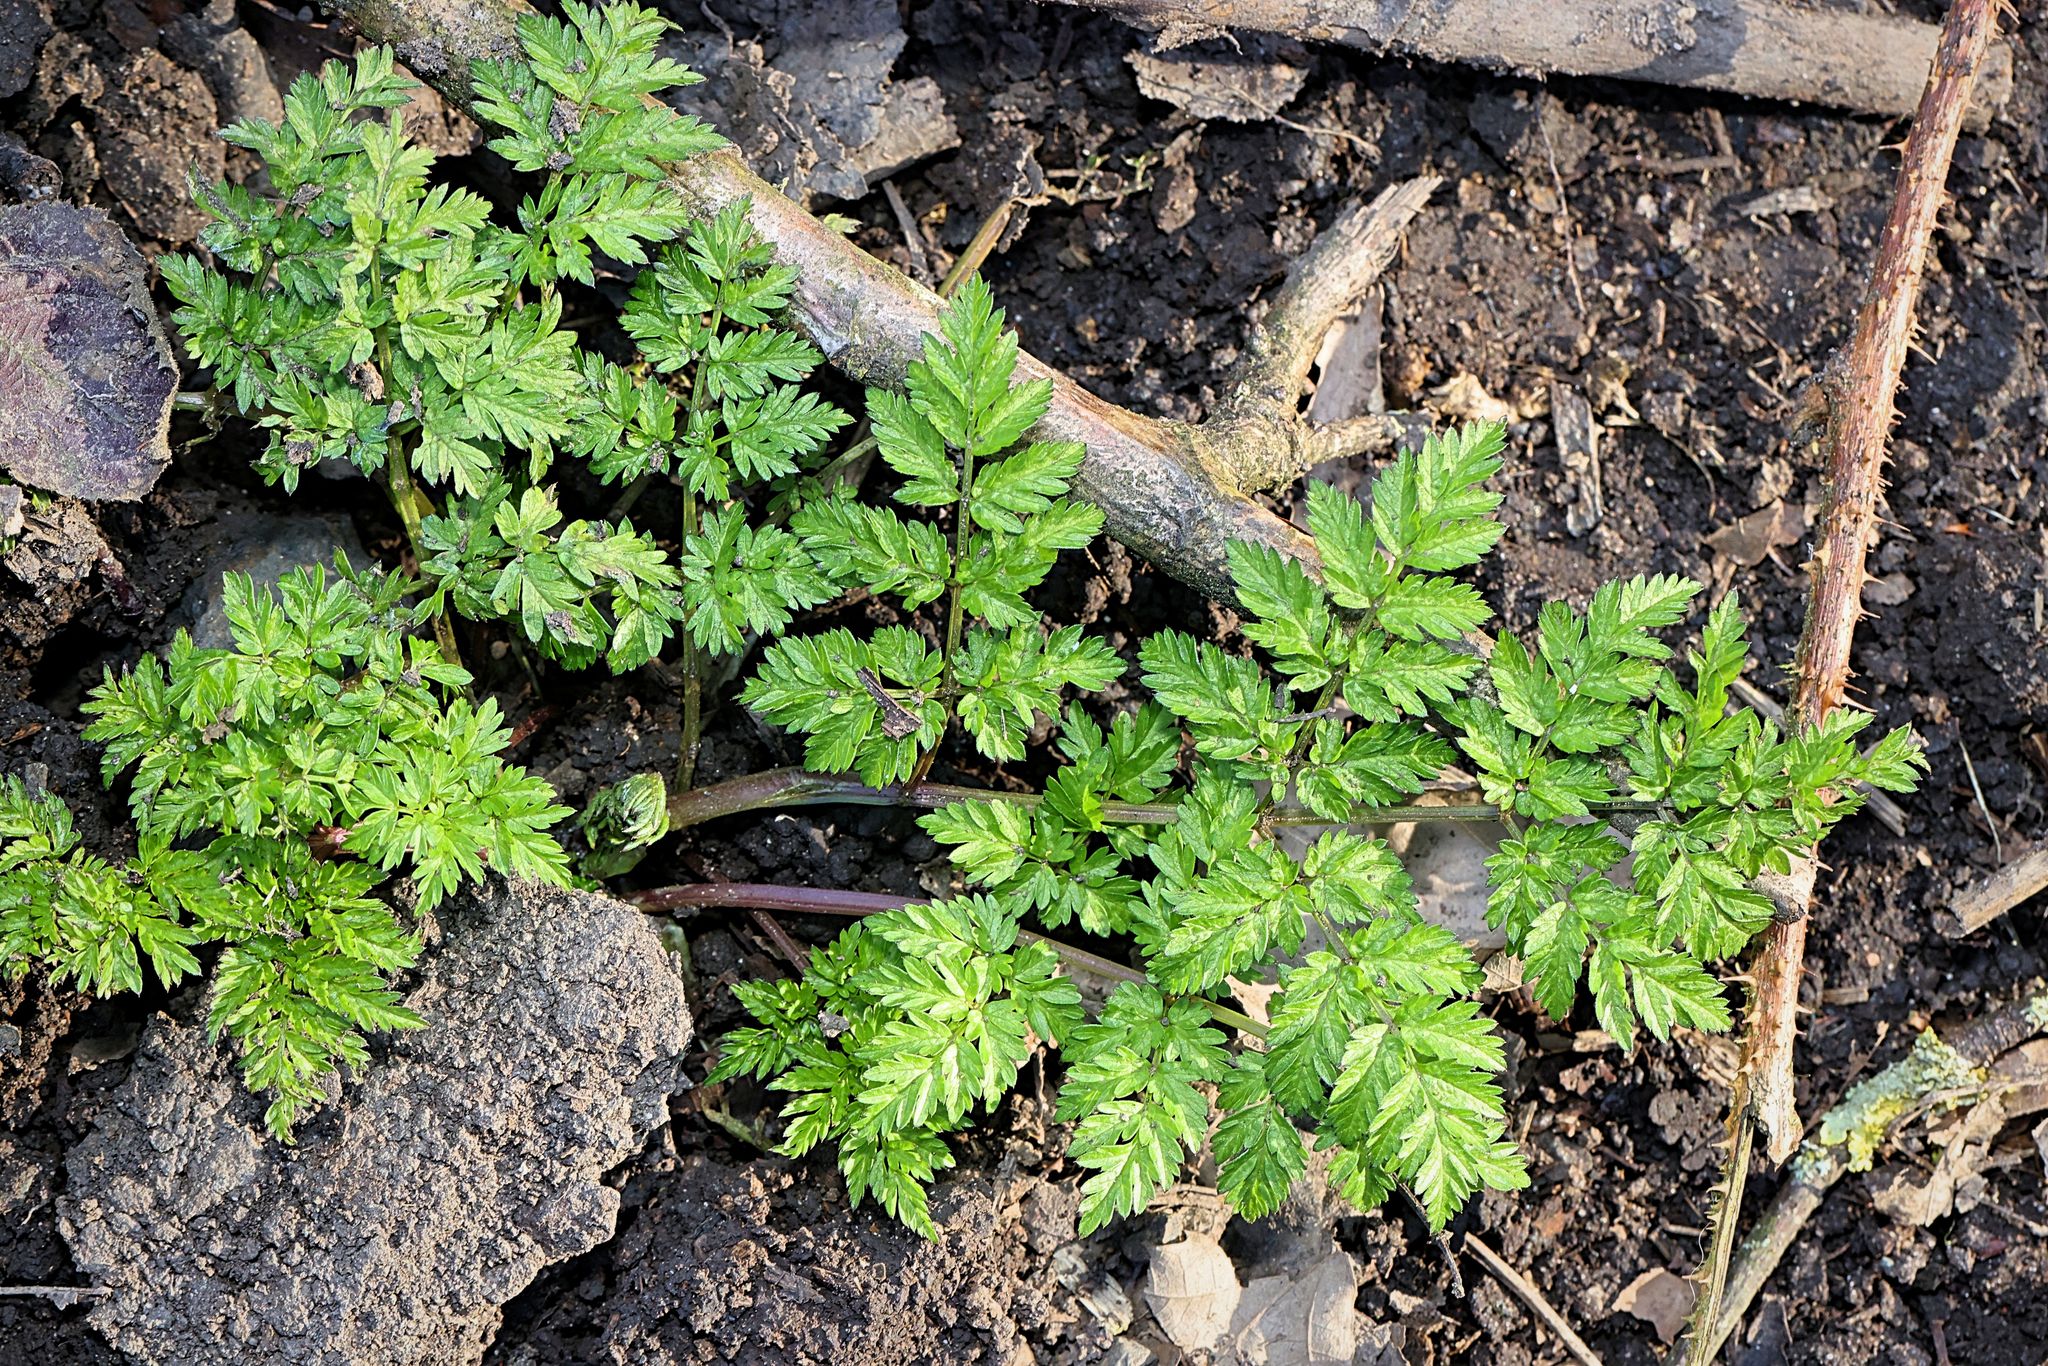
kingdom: Plantae
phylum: Tracheophyta
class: Magnoliopsida
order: Apiales
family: Apiaceae
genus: Anthriscus
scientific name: Anthriscus sylvestris
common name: Cow parsley
